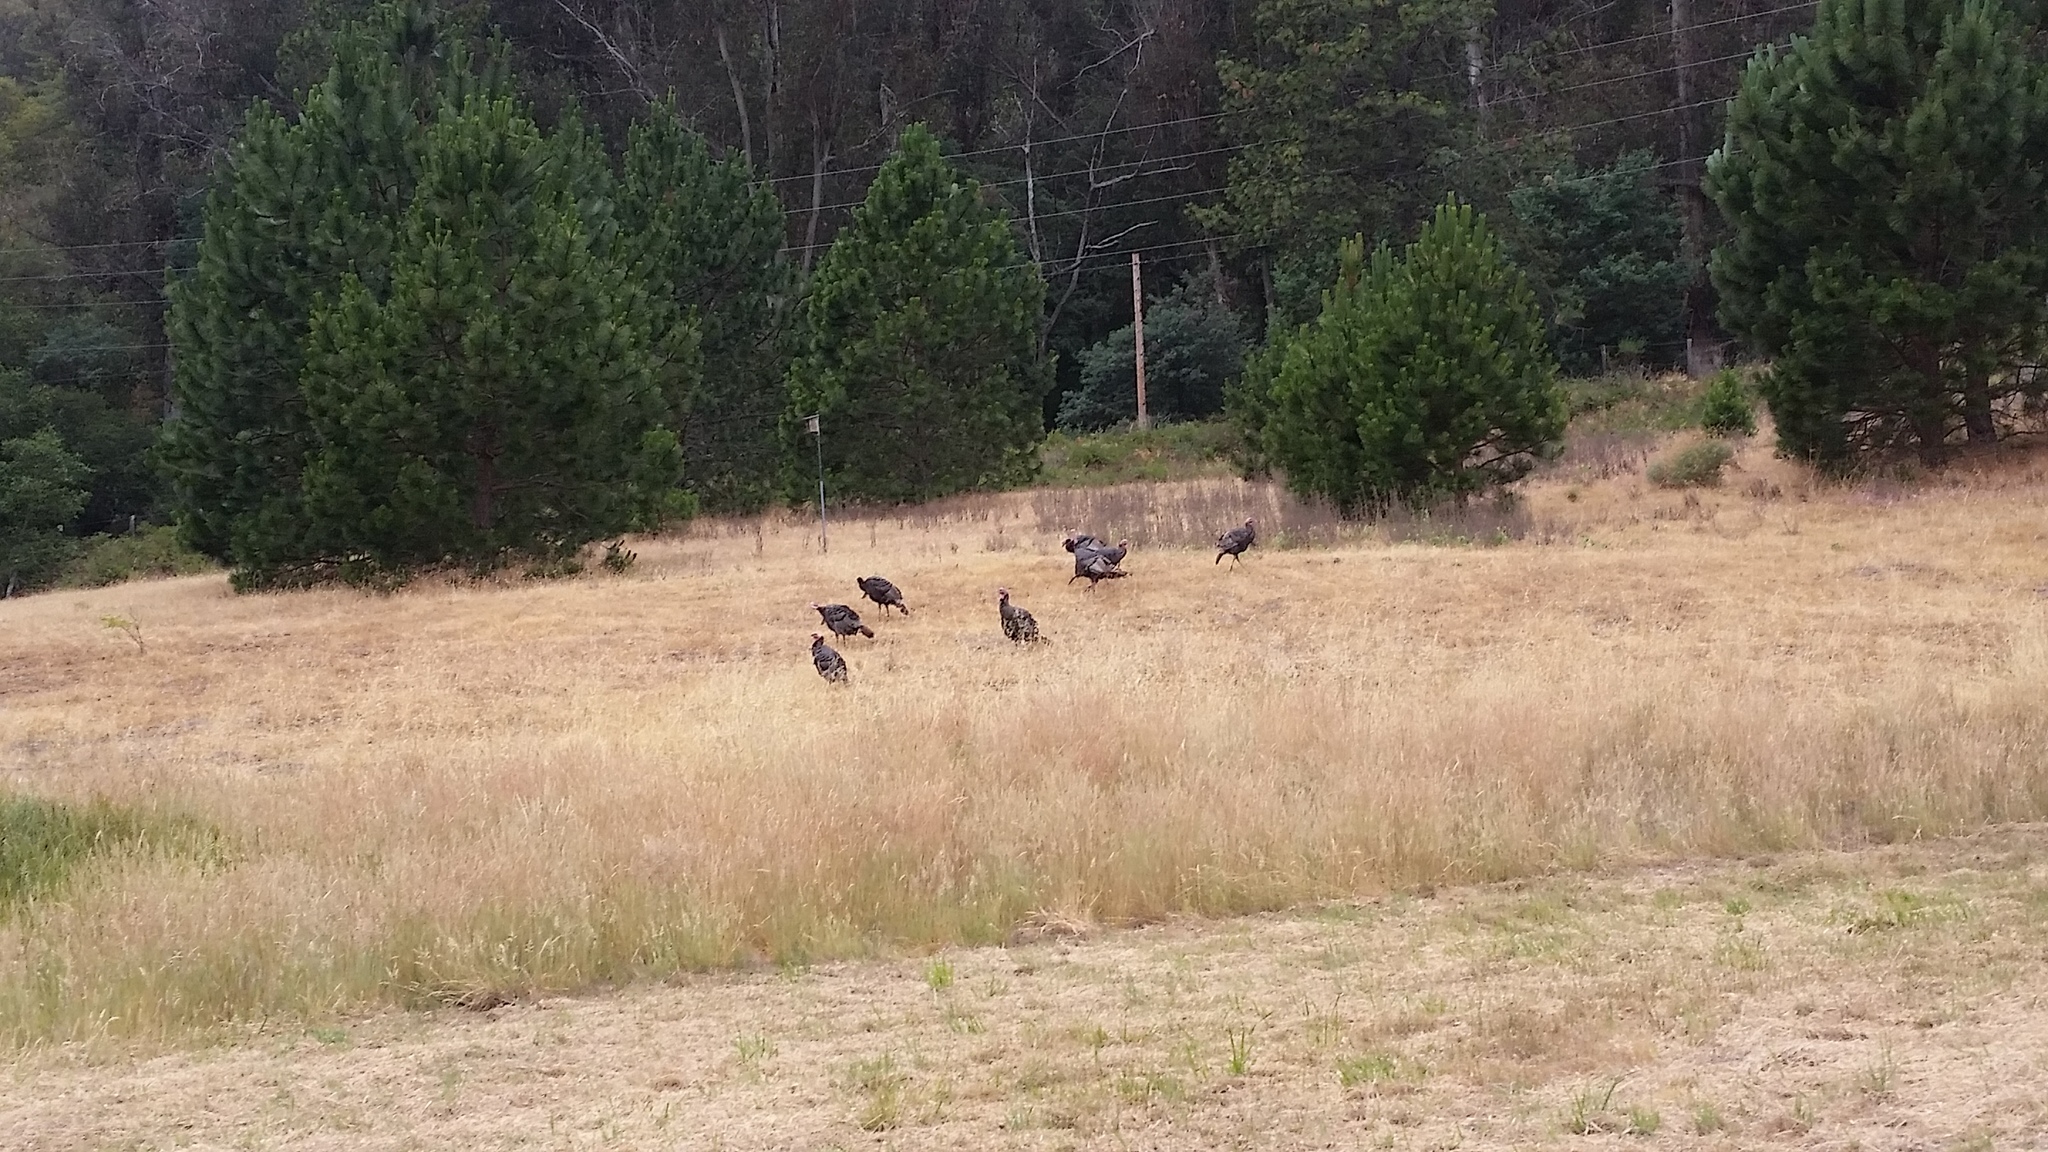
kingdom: Animalia
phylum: Chordata
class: Aves
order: Galliformes
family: Phasianidae
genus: Meleagris
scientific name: Meleagris gallopavo
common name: Wild turkey
